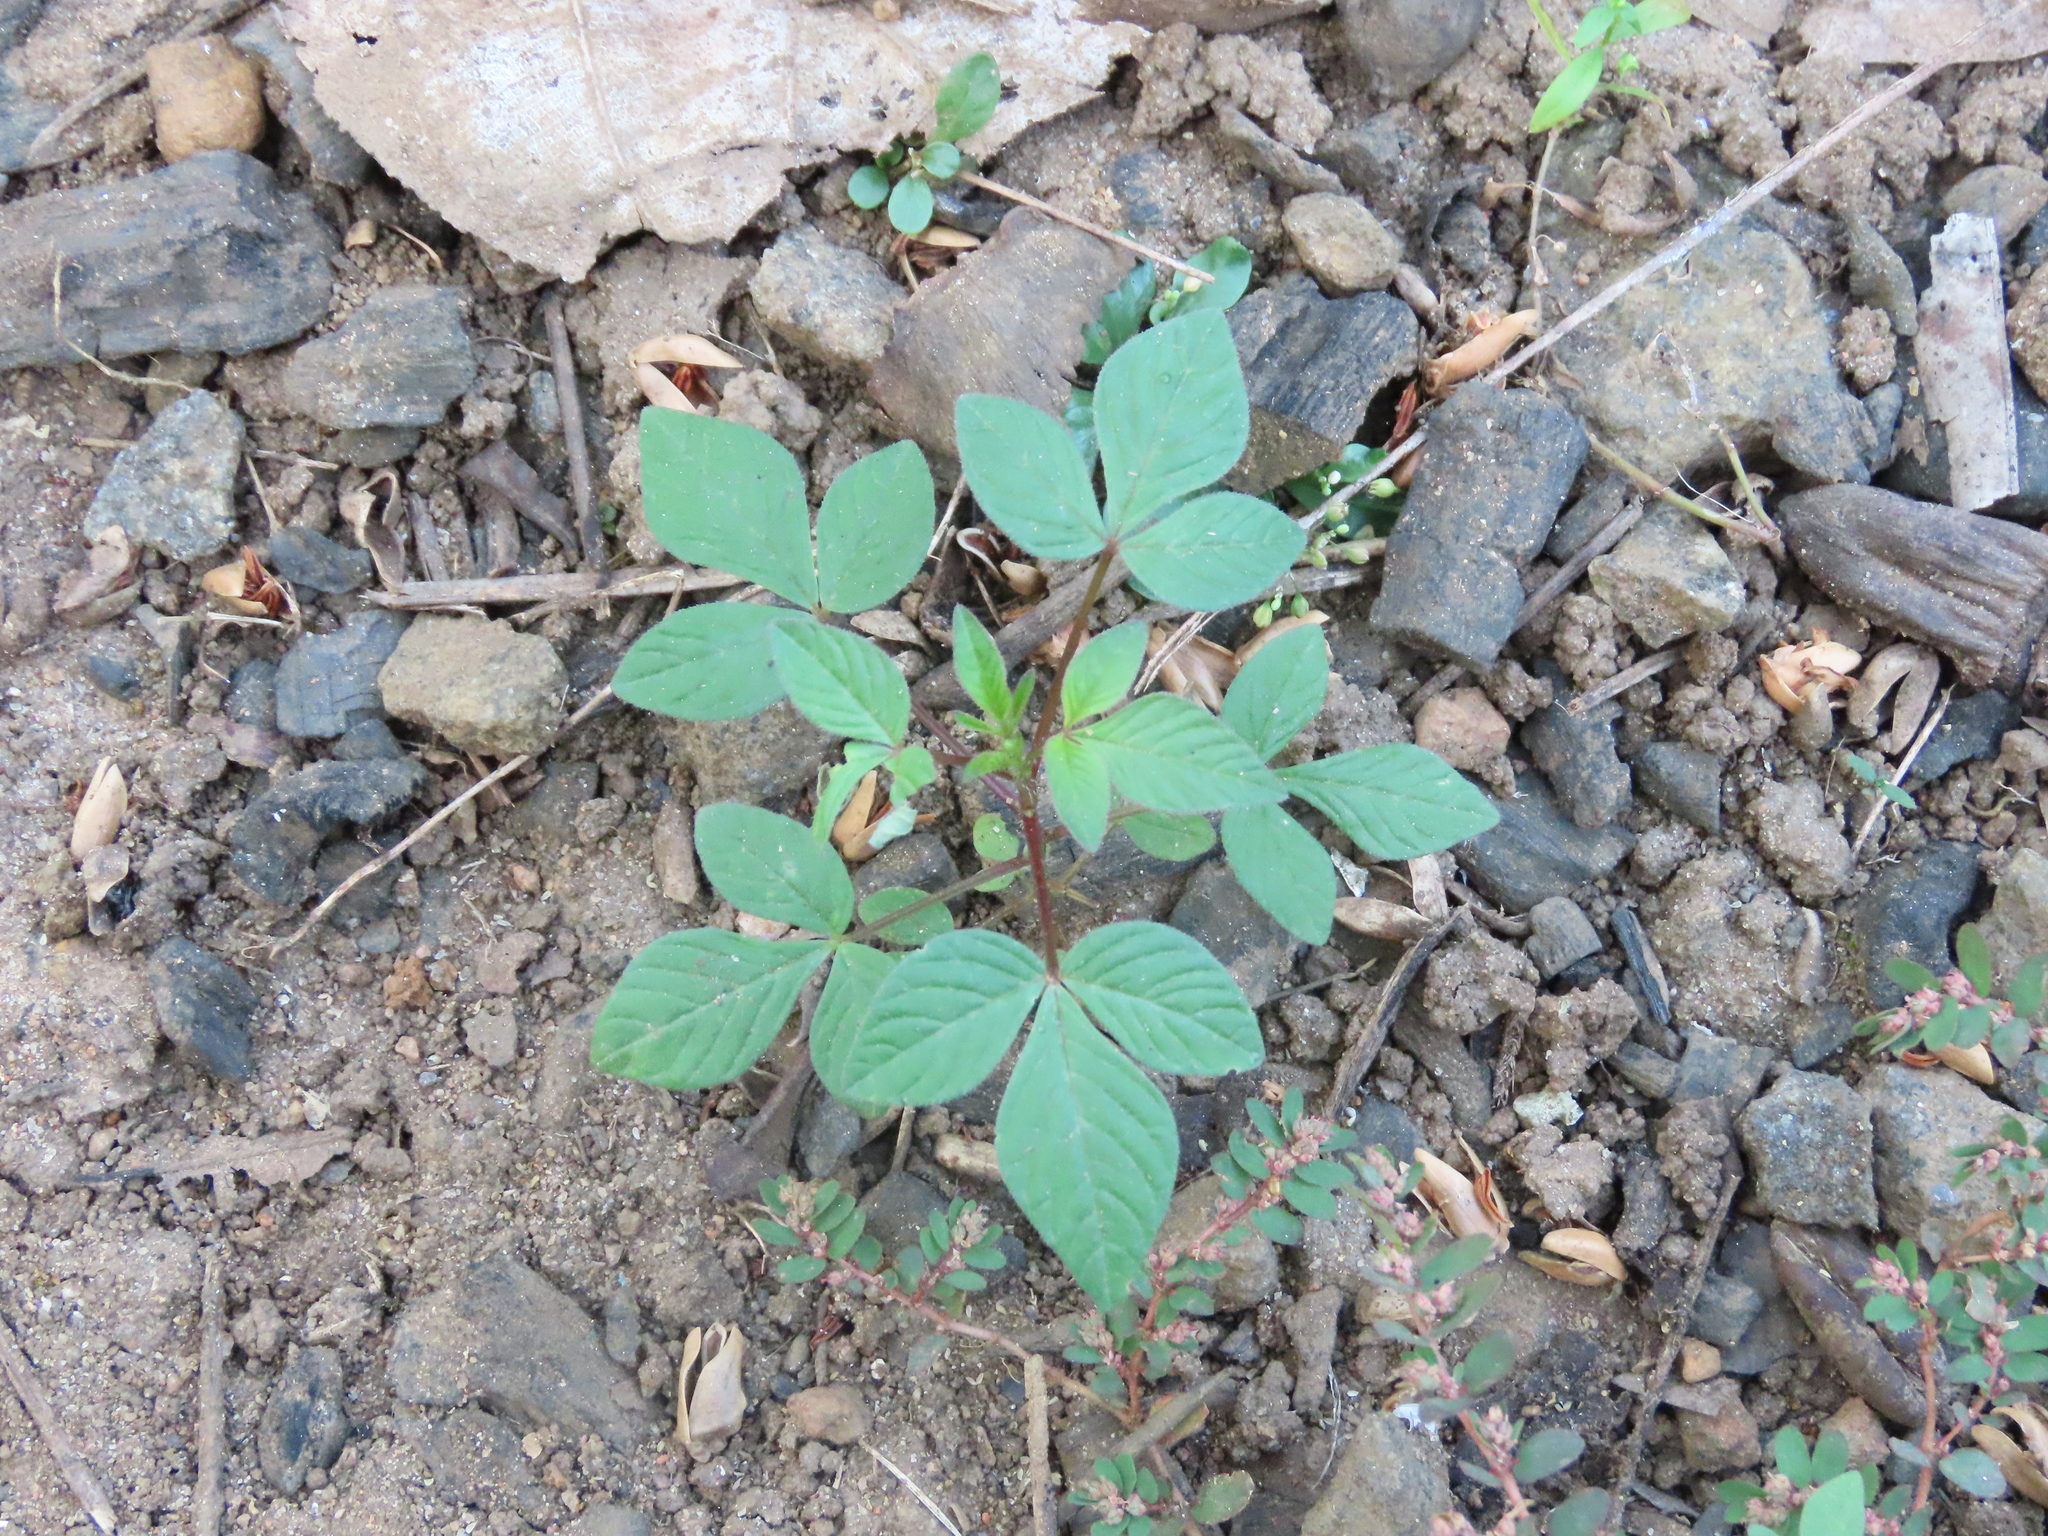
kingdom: Plantae
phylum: Tracheophyta
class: Magnoliopsida
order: Brassicales
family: Cleomaceae
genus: Sieruela
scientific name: Sieruela rutidosperma
